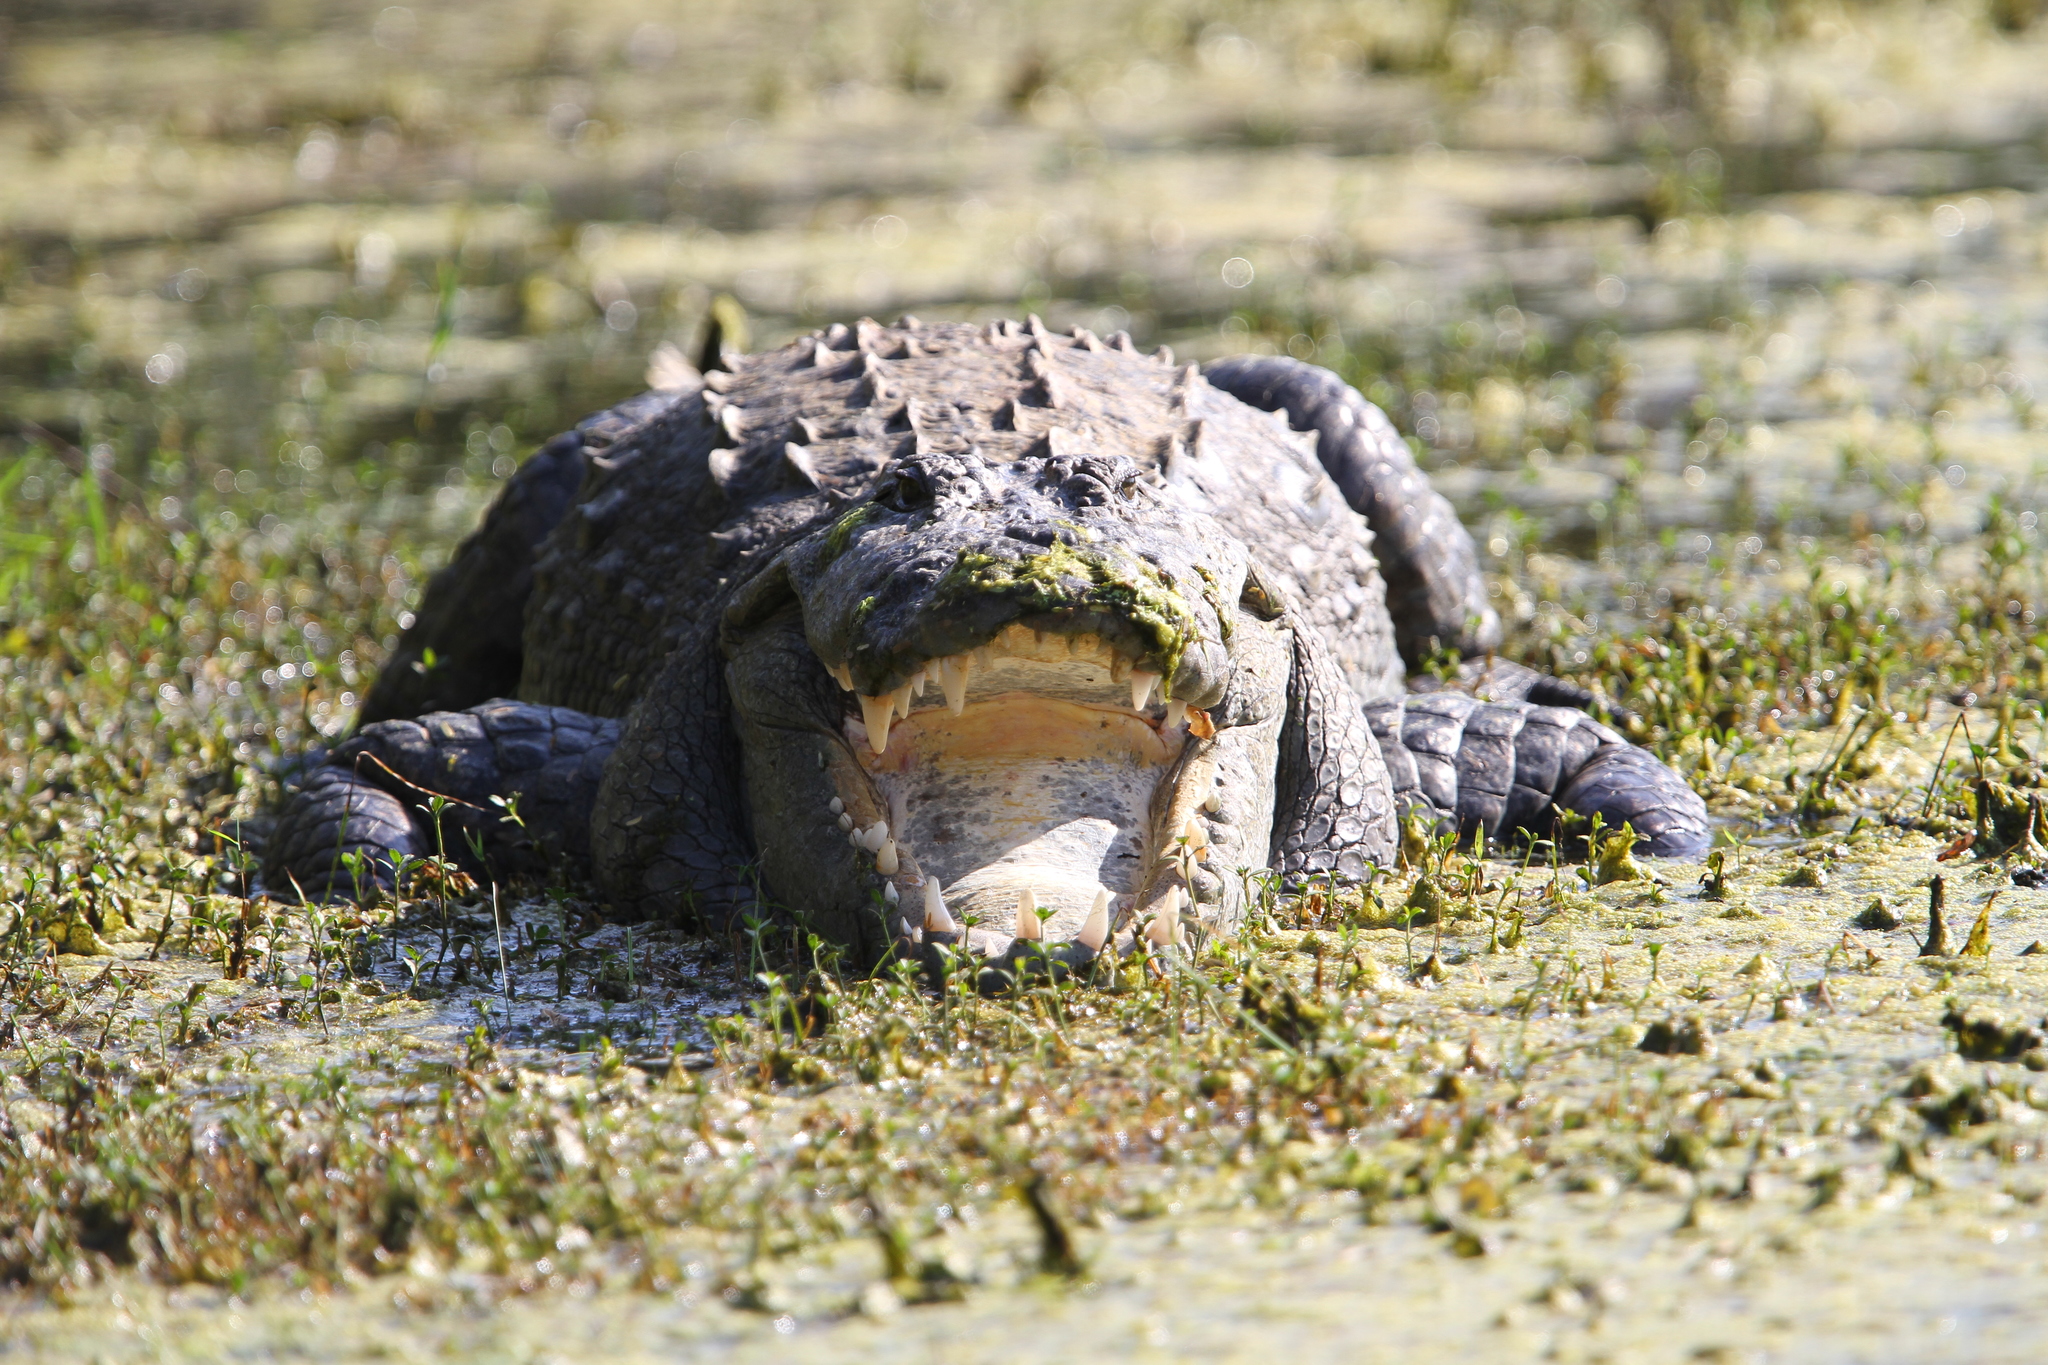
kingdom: Animalia
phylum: Chordata
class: Crocodylia
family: Crocodylidae
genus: Crocodylus
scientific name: Crocodylus palustris
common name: Mugger crocodile
